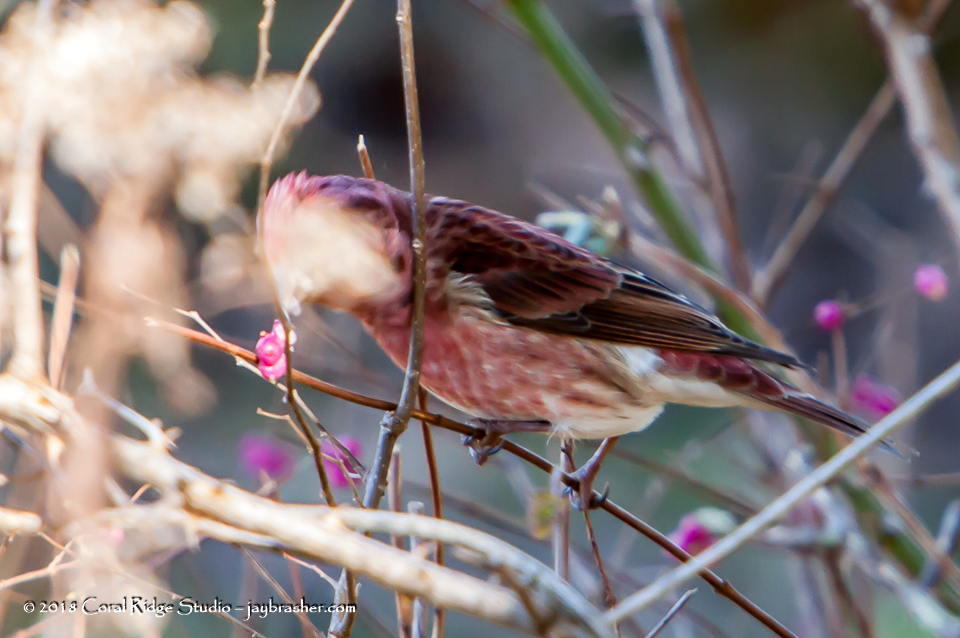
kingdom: Animalia
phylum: Chordata
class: Aves
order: Passeriformes
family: Fringillidae
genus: Haemorhous
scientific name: Haemorhous purpureus
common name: Purple finch
